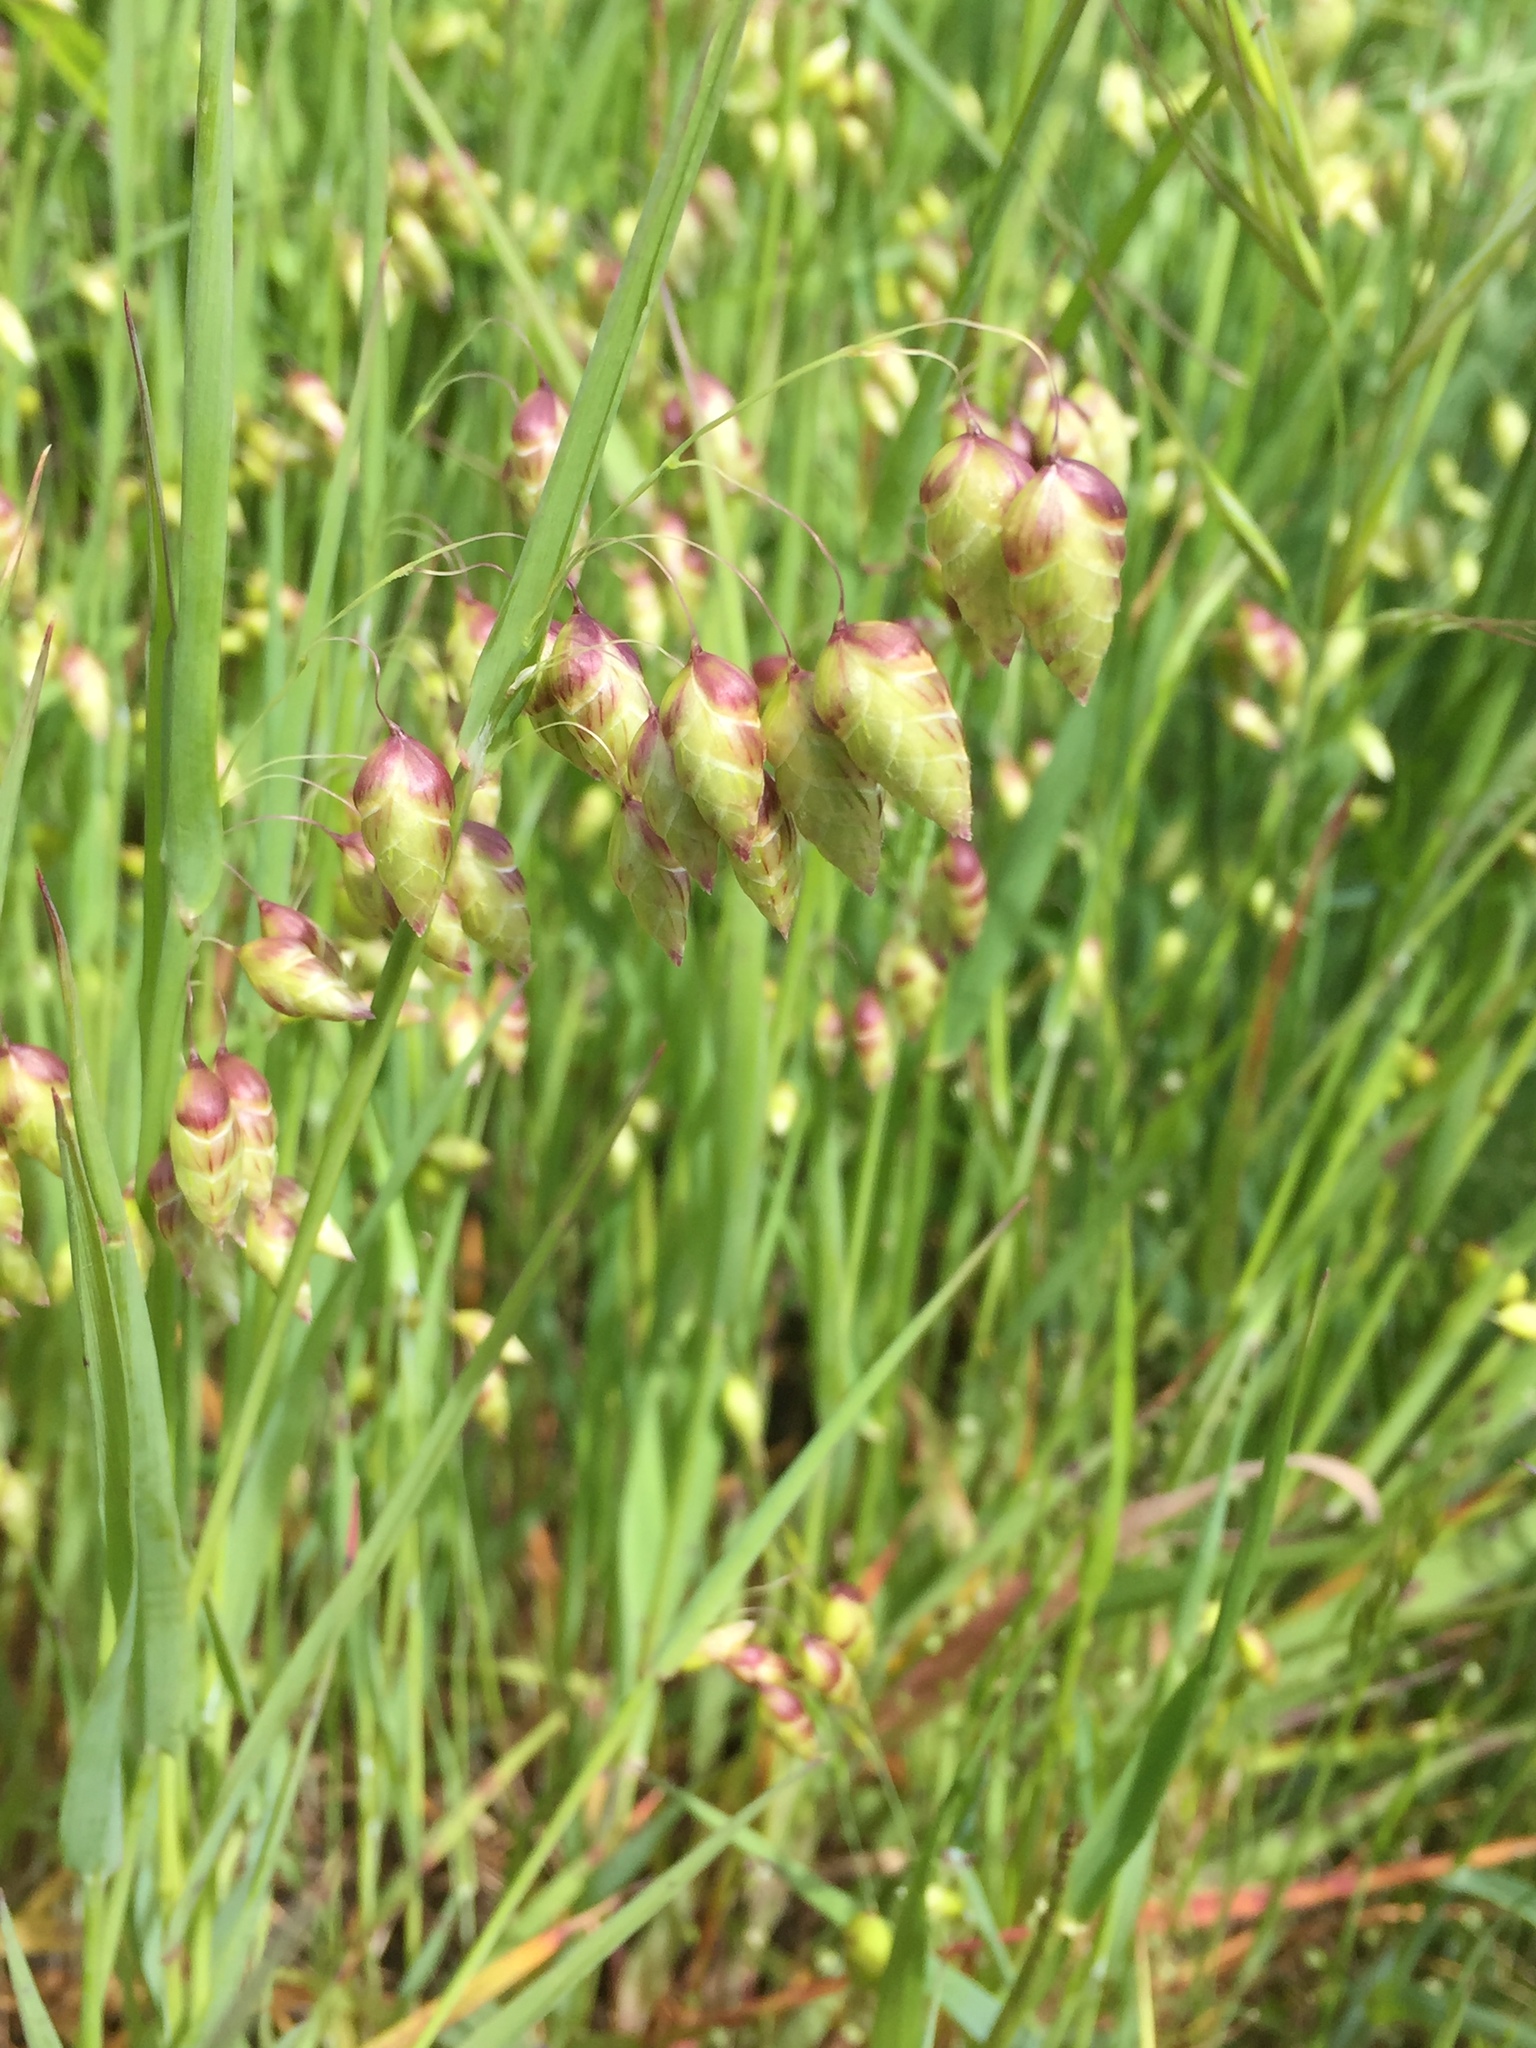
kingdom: Plantae
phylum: Tracheophyta
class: Liliopsida
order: Poales
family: Poaceae
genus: Briza
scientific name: Briza maxima
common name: Big quakinggrass
